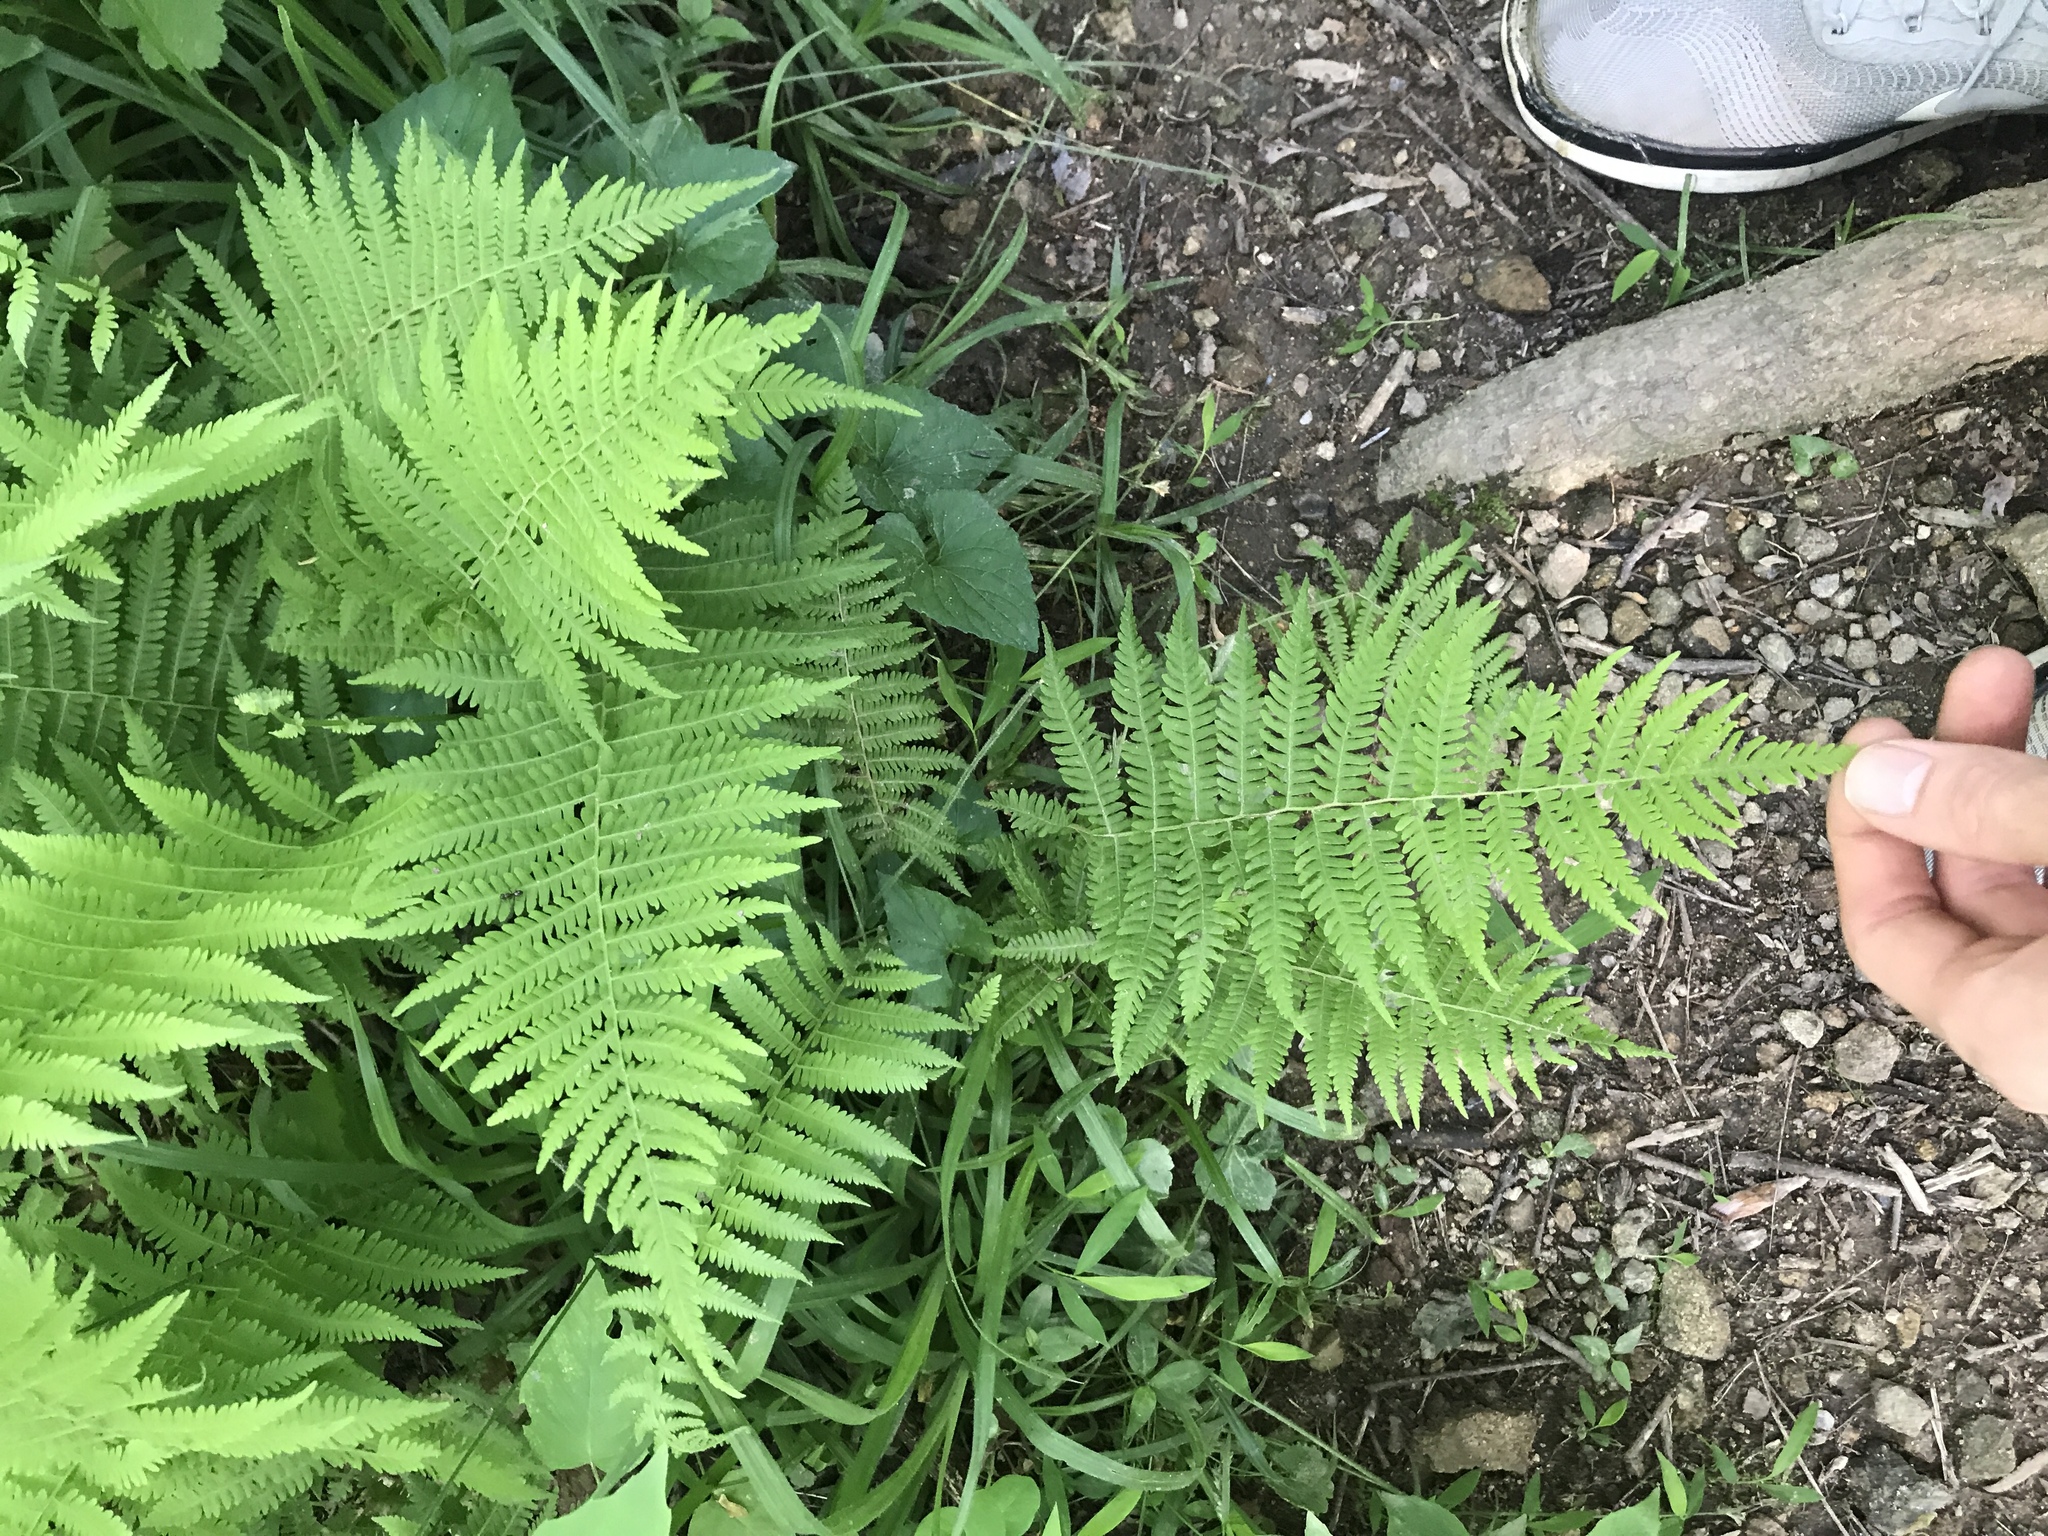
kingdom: Plantae
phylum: Tracheophyta
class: Polypodiopsida
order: Polypodiales
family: Thelypteridaceae
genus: Amauropelta
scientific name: Amauropelta noveboracensis
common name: New york fern
